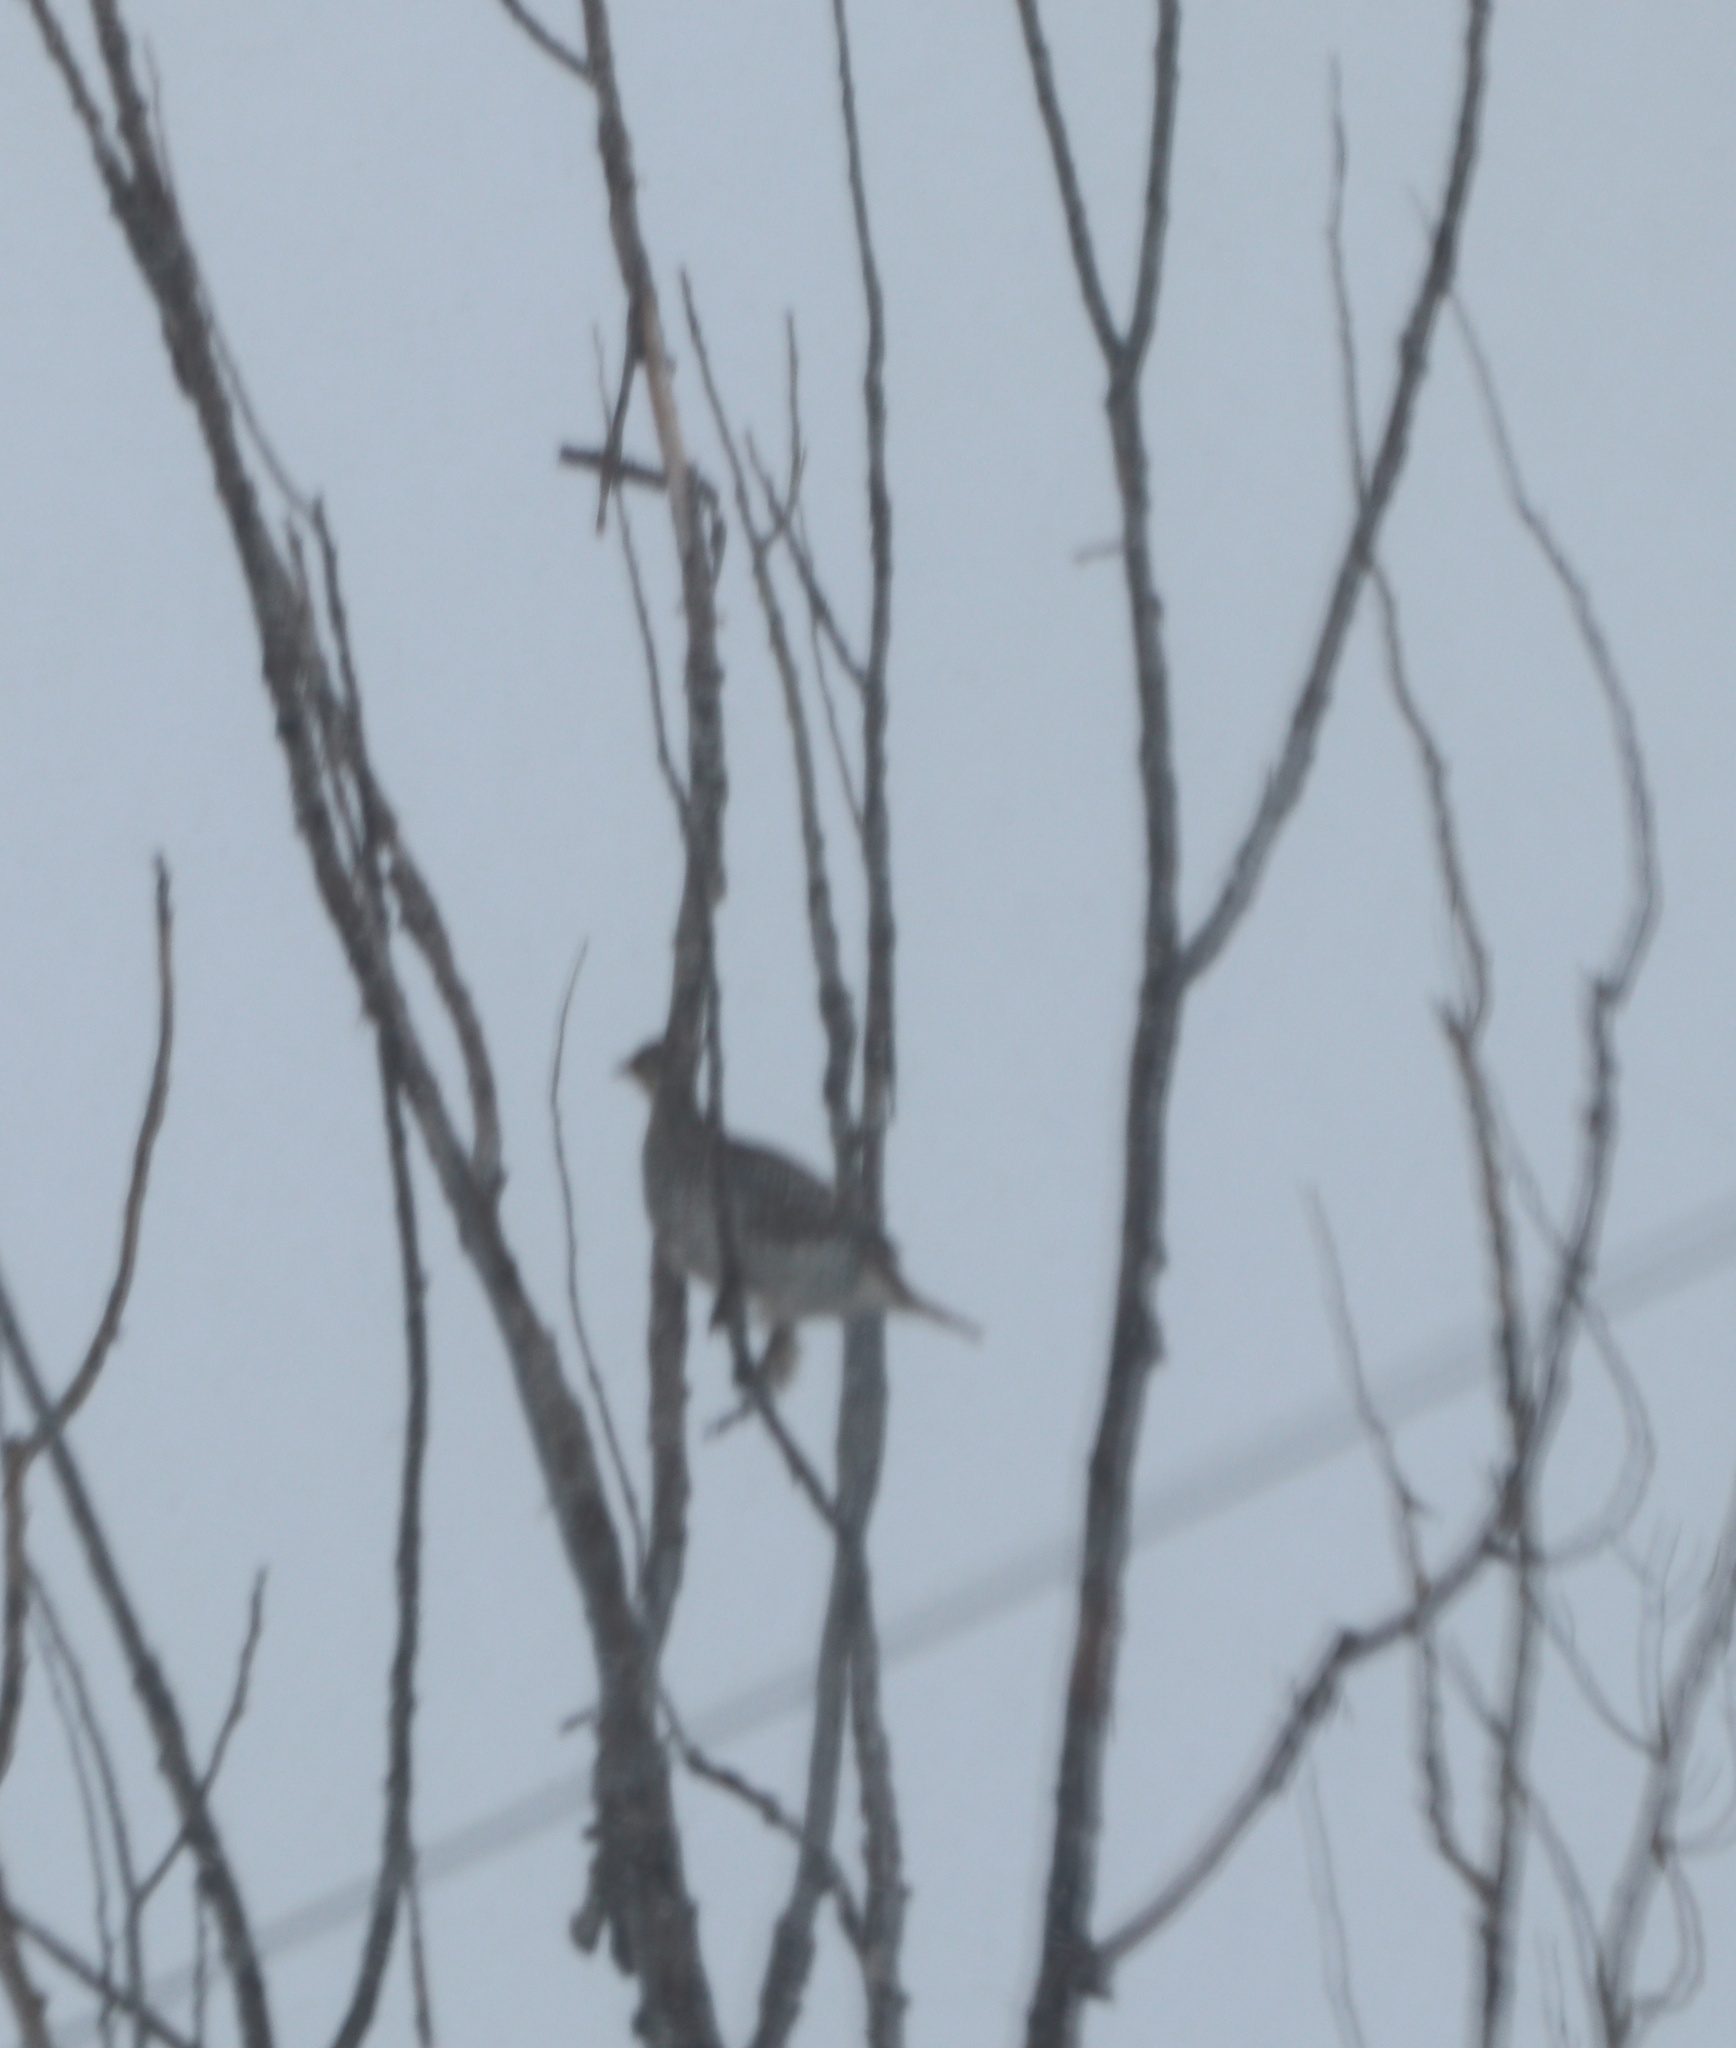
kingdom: Animalia
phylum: Chordata
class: Aves
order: Galliformes
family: Phasianidae
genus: Tympanuchus
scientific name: Tympanuchus phasianellus
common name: Sharp-tailed grouse
